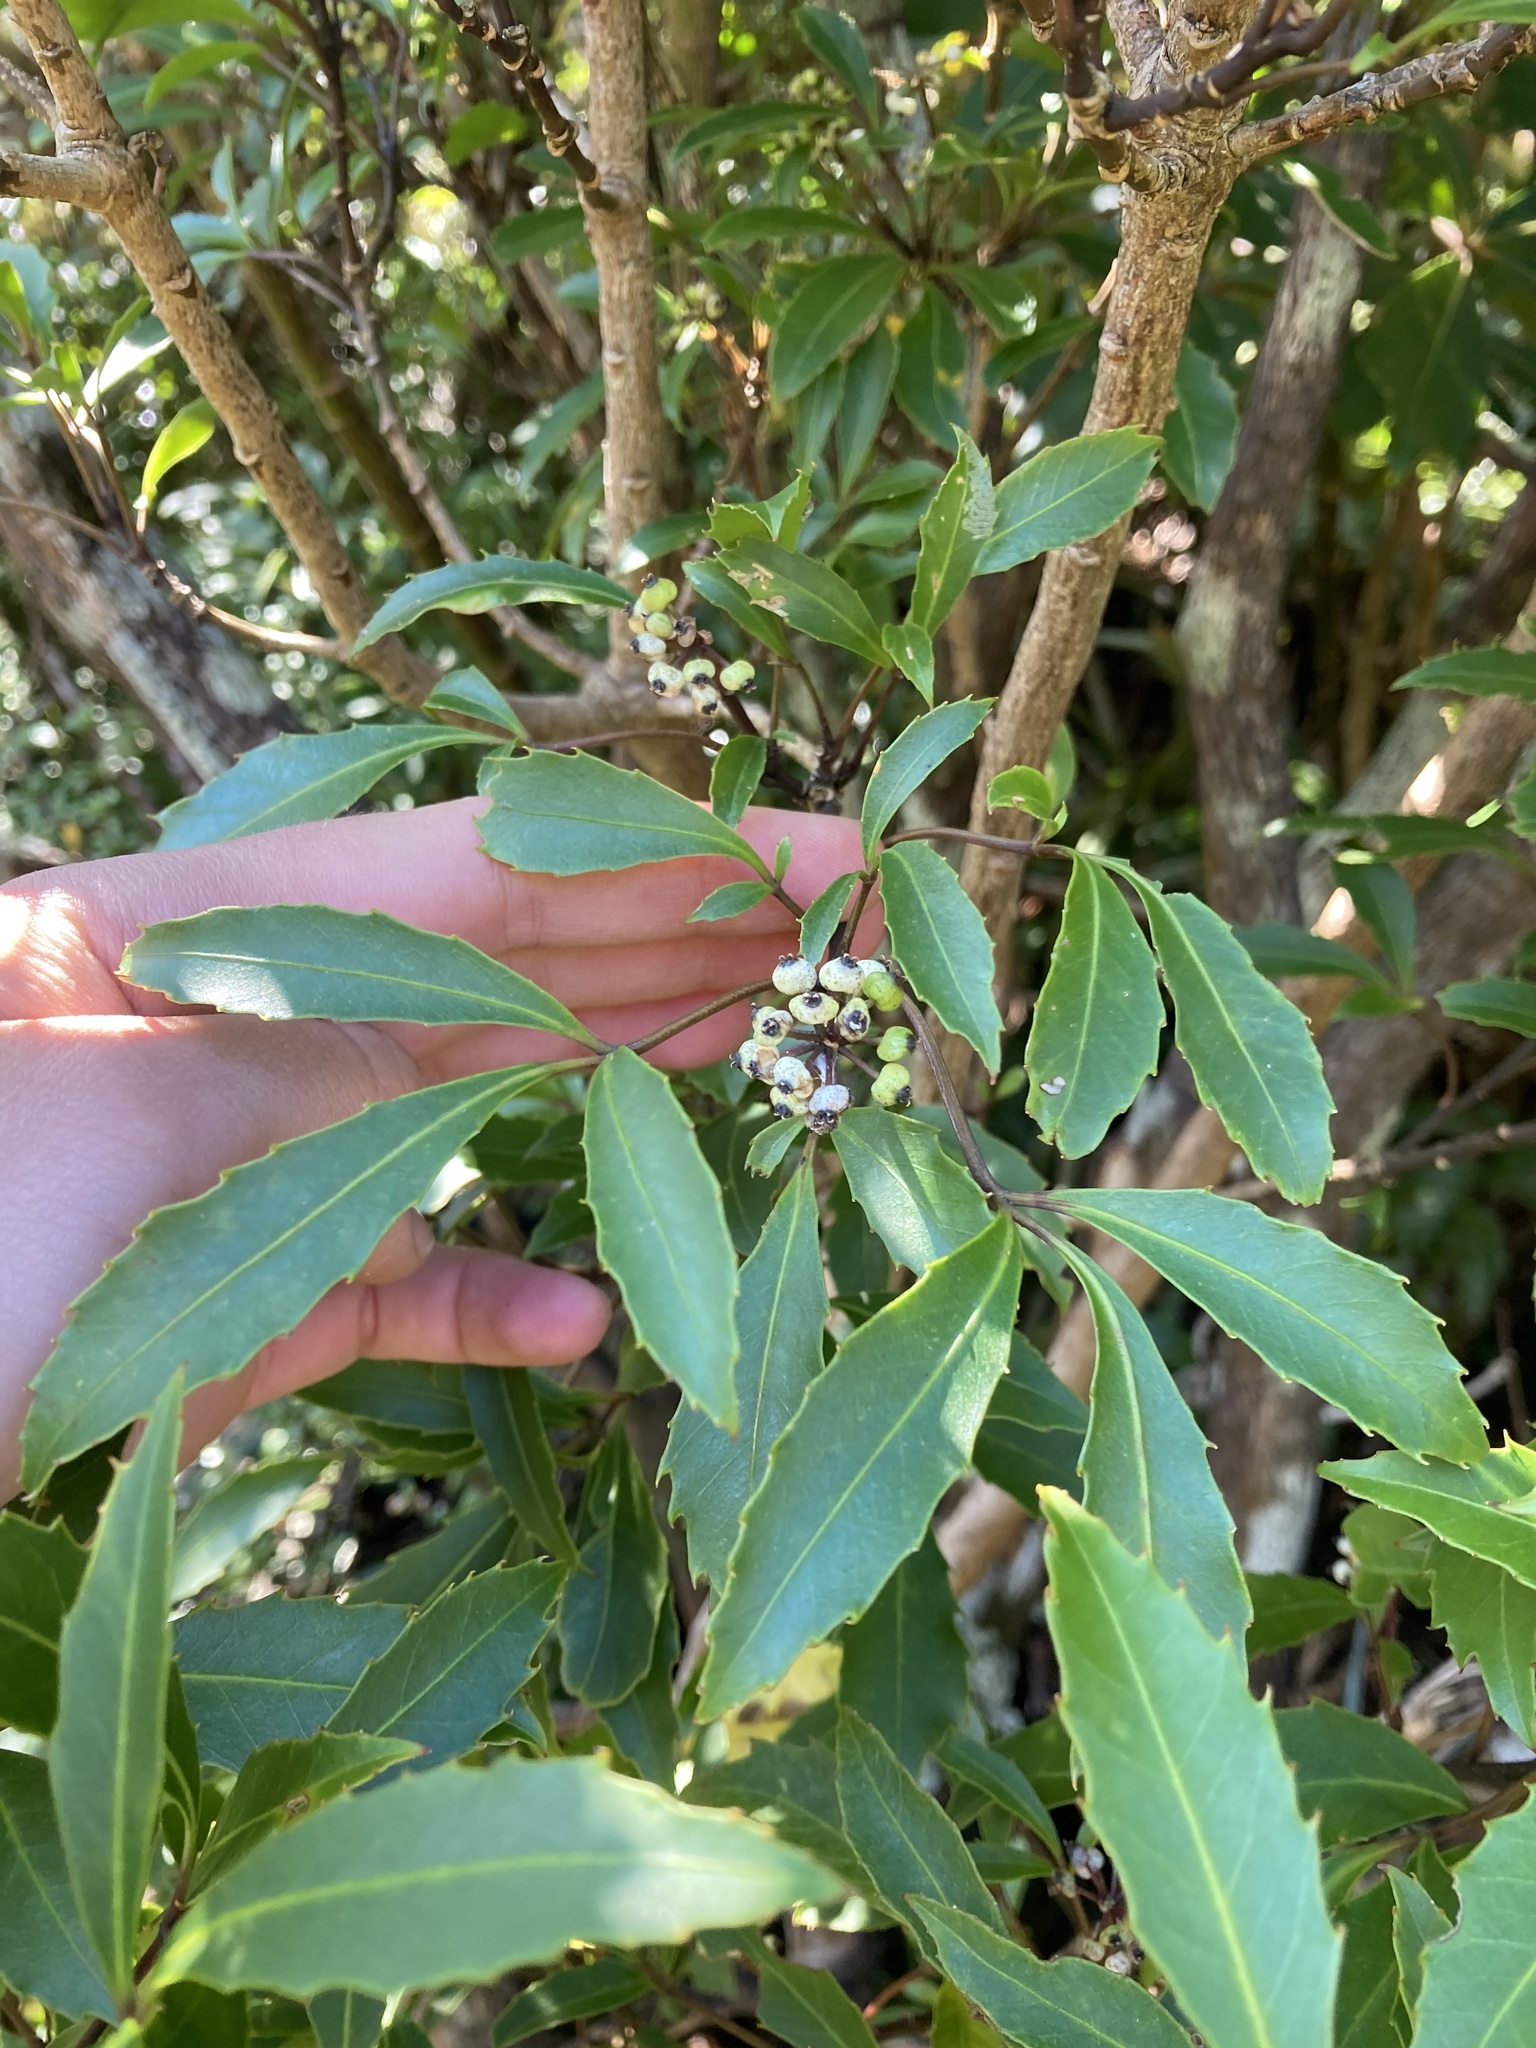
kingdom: Plantae
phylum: Tracheophyta
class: Magnoliopsida
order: Apiales
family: Araliaceae
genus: Raukaua
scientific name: Raukaua simplex
